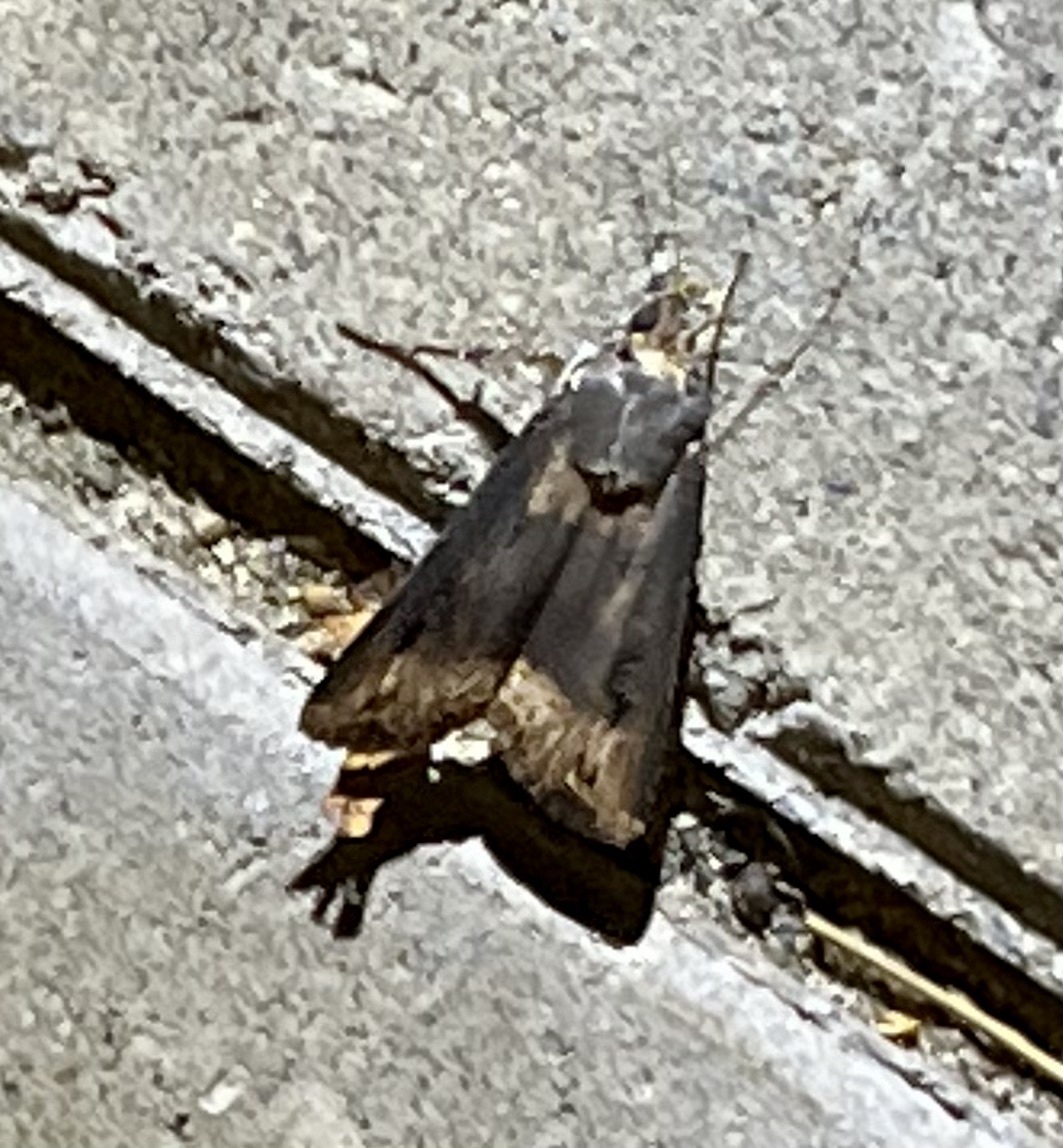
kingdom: Animalia
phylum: Arthropoda
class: Insecta
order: Lepidoptera
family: Noctuidae
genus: Agrotis
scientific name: Agrotis ipsilon
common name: Dark sword-grass
